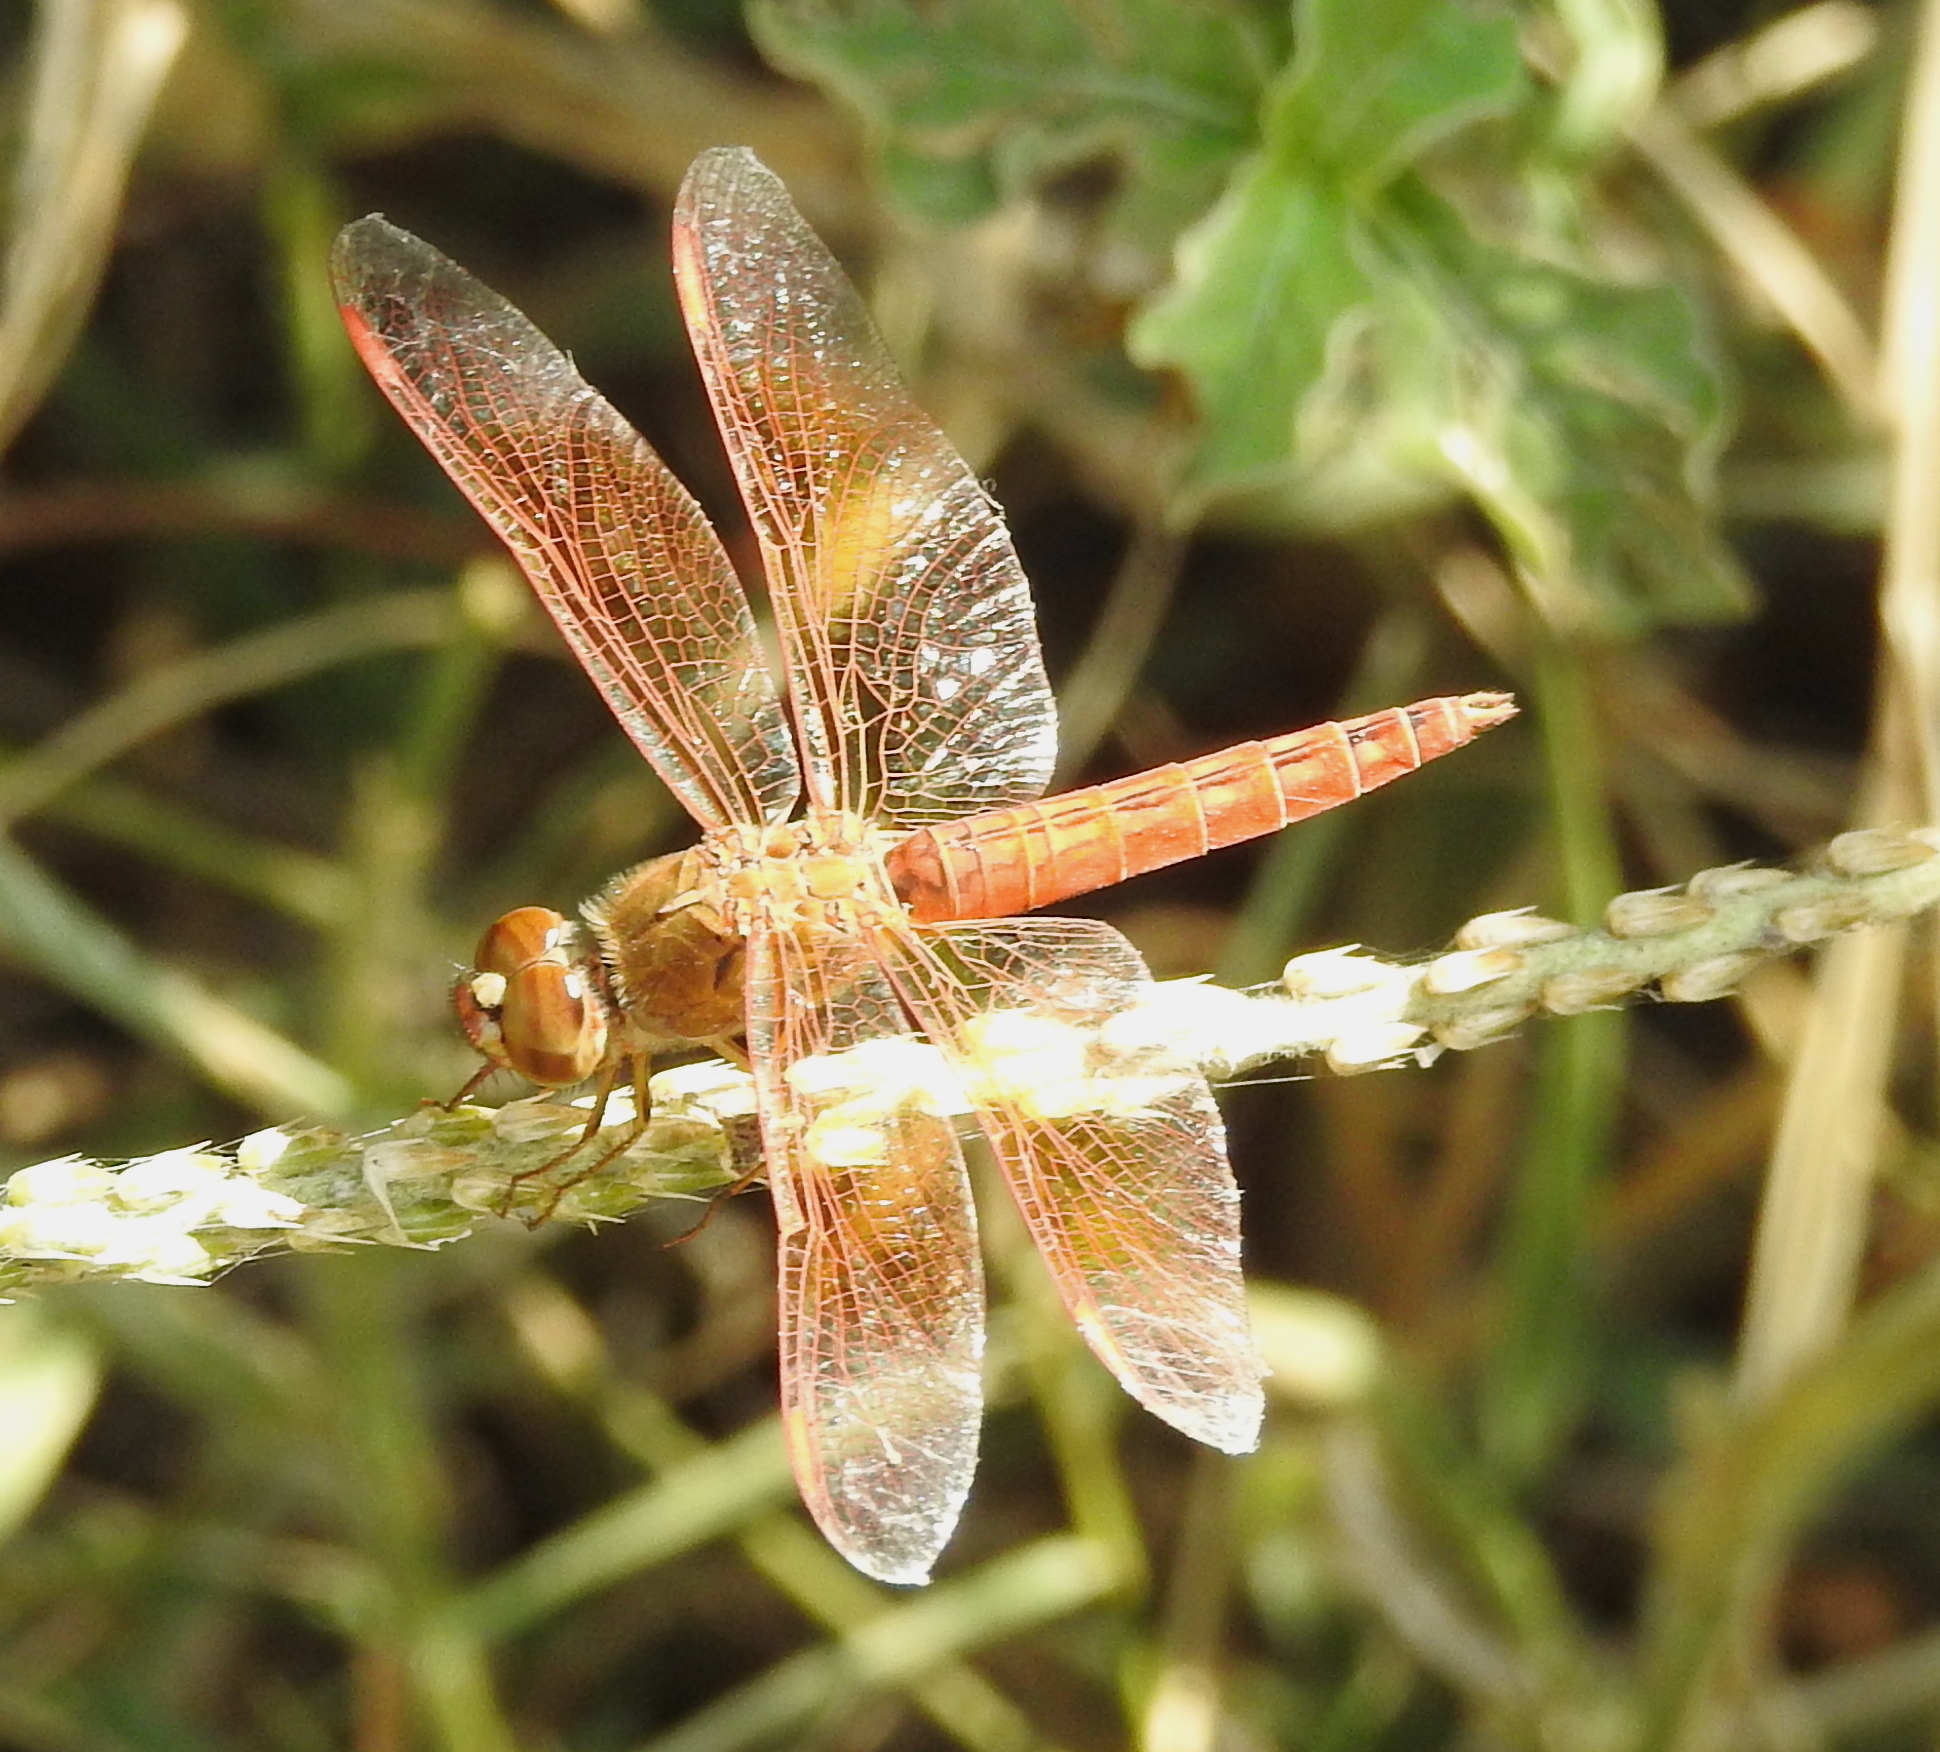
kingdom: Animalia
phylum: Arthropoda
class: Insecta
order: Odonata
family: Libellulidae
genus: Brachythemis
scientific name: Brachythemis contaminata
